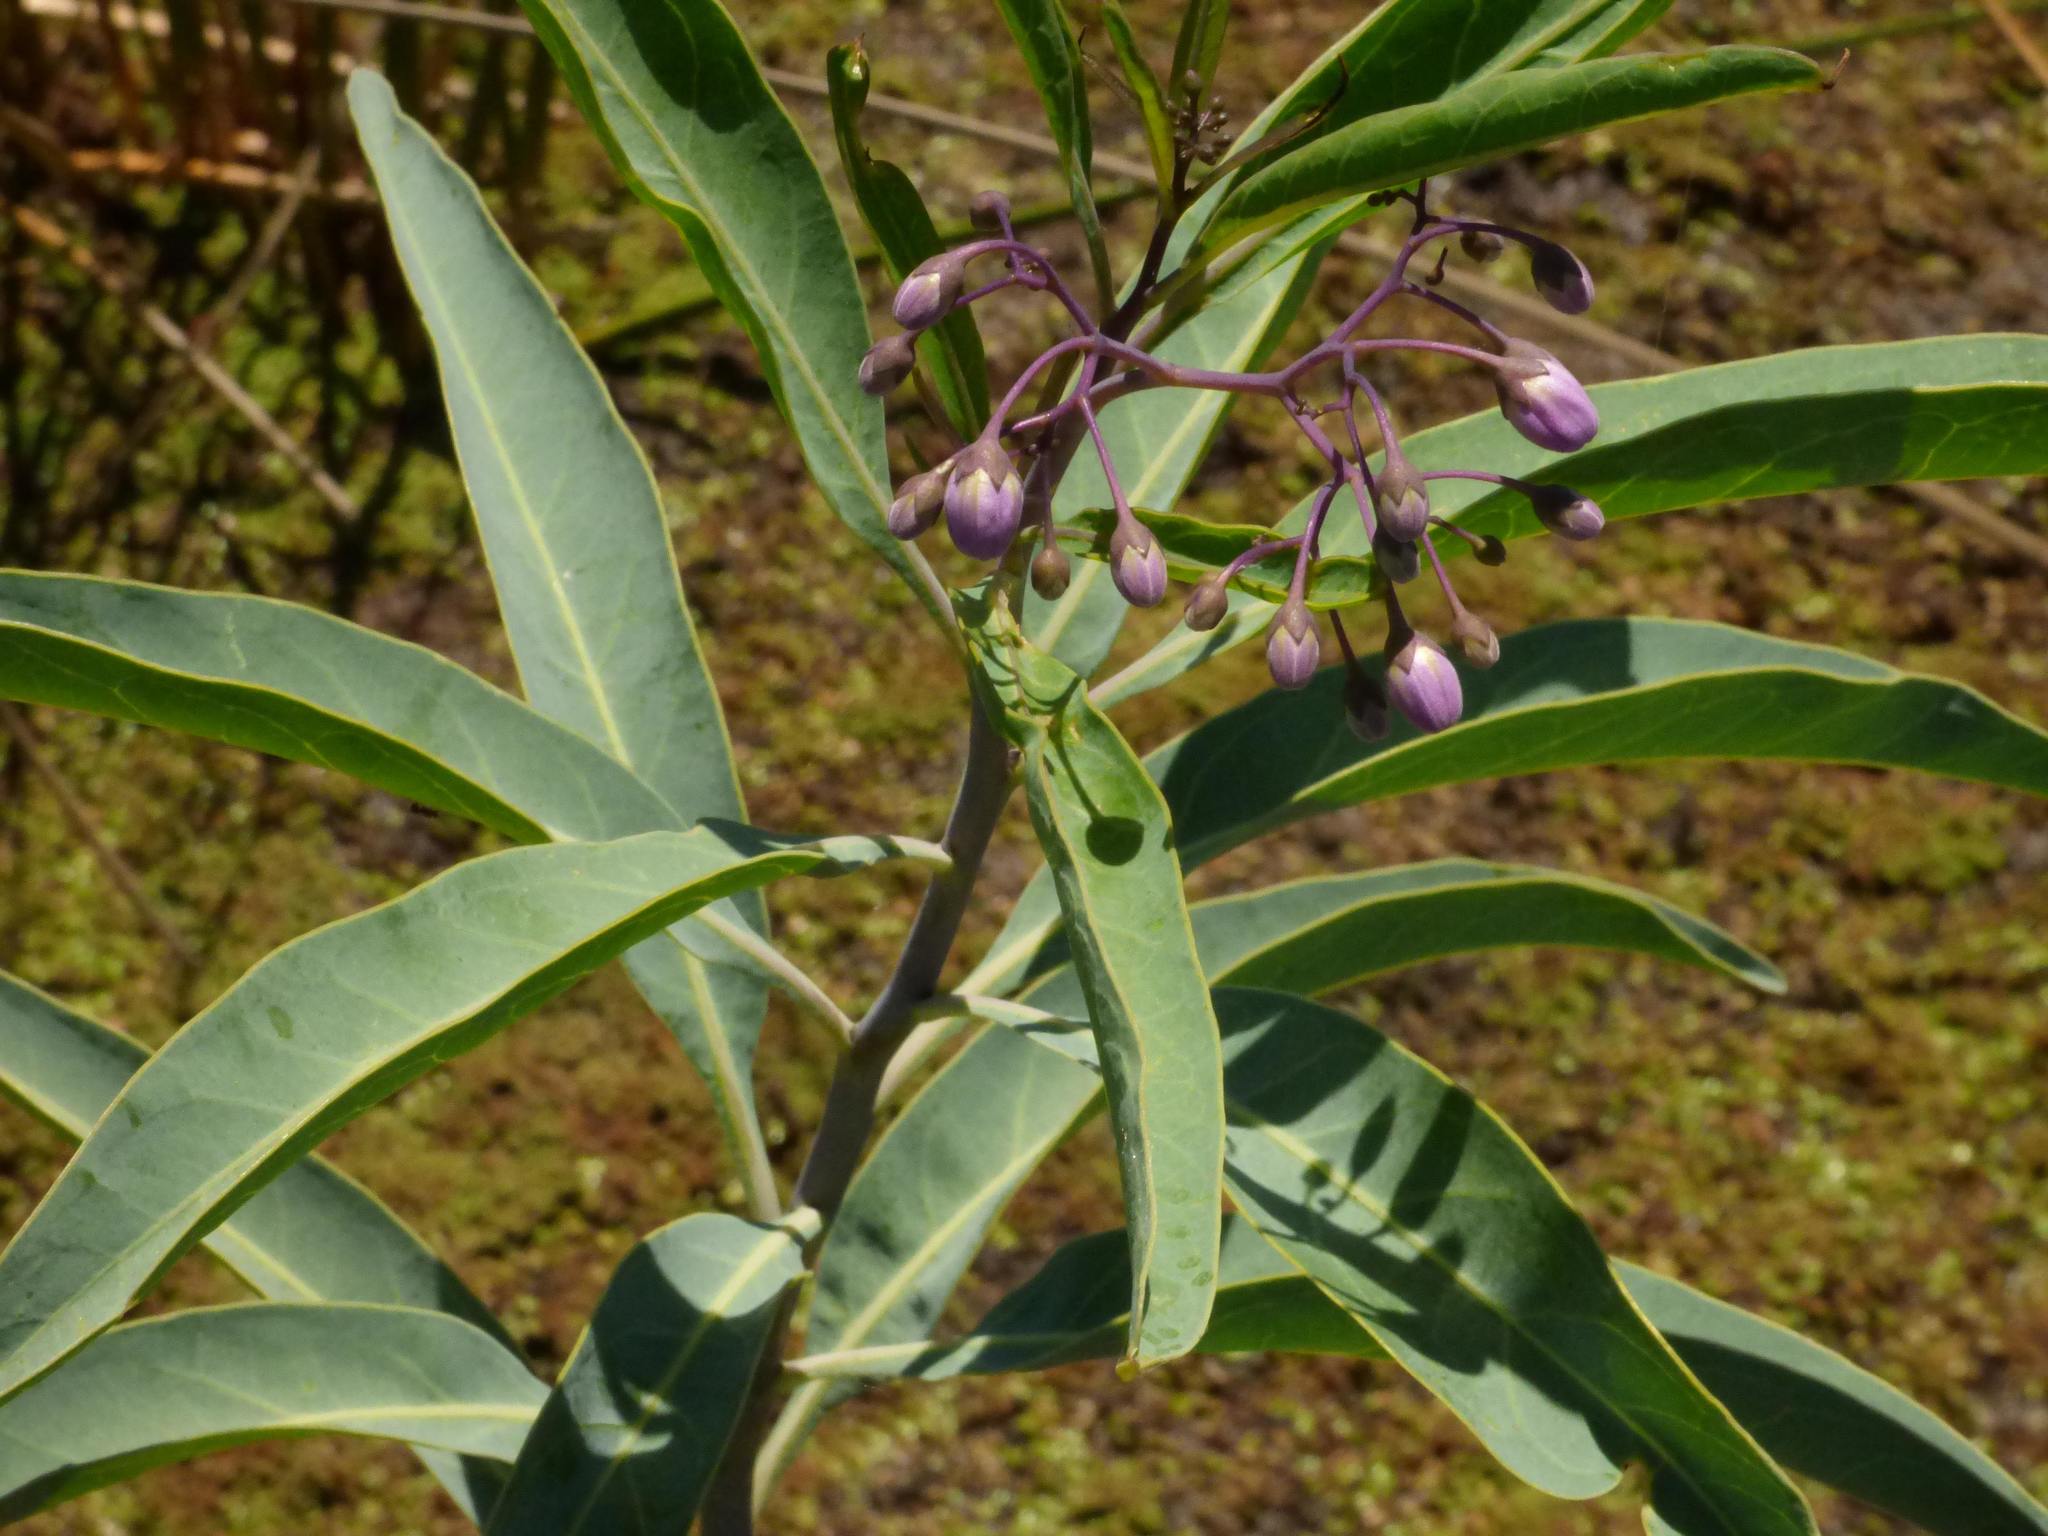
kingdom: Plantae
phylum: Tracheophyta
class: Magnoliopsida
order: Solanales
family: Solanaceae
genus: Solanum
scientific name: Solanum glaucophyllum
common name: Waxyleaf nightshade
